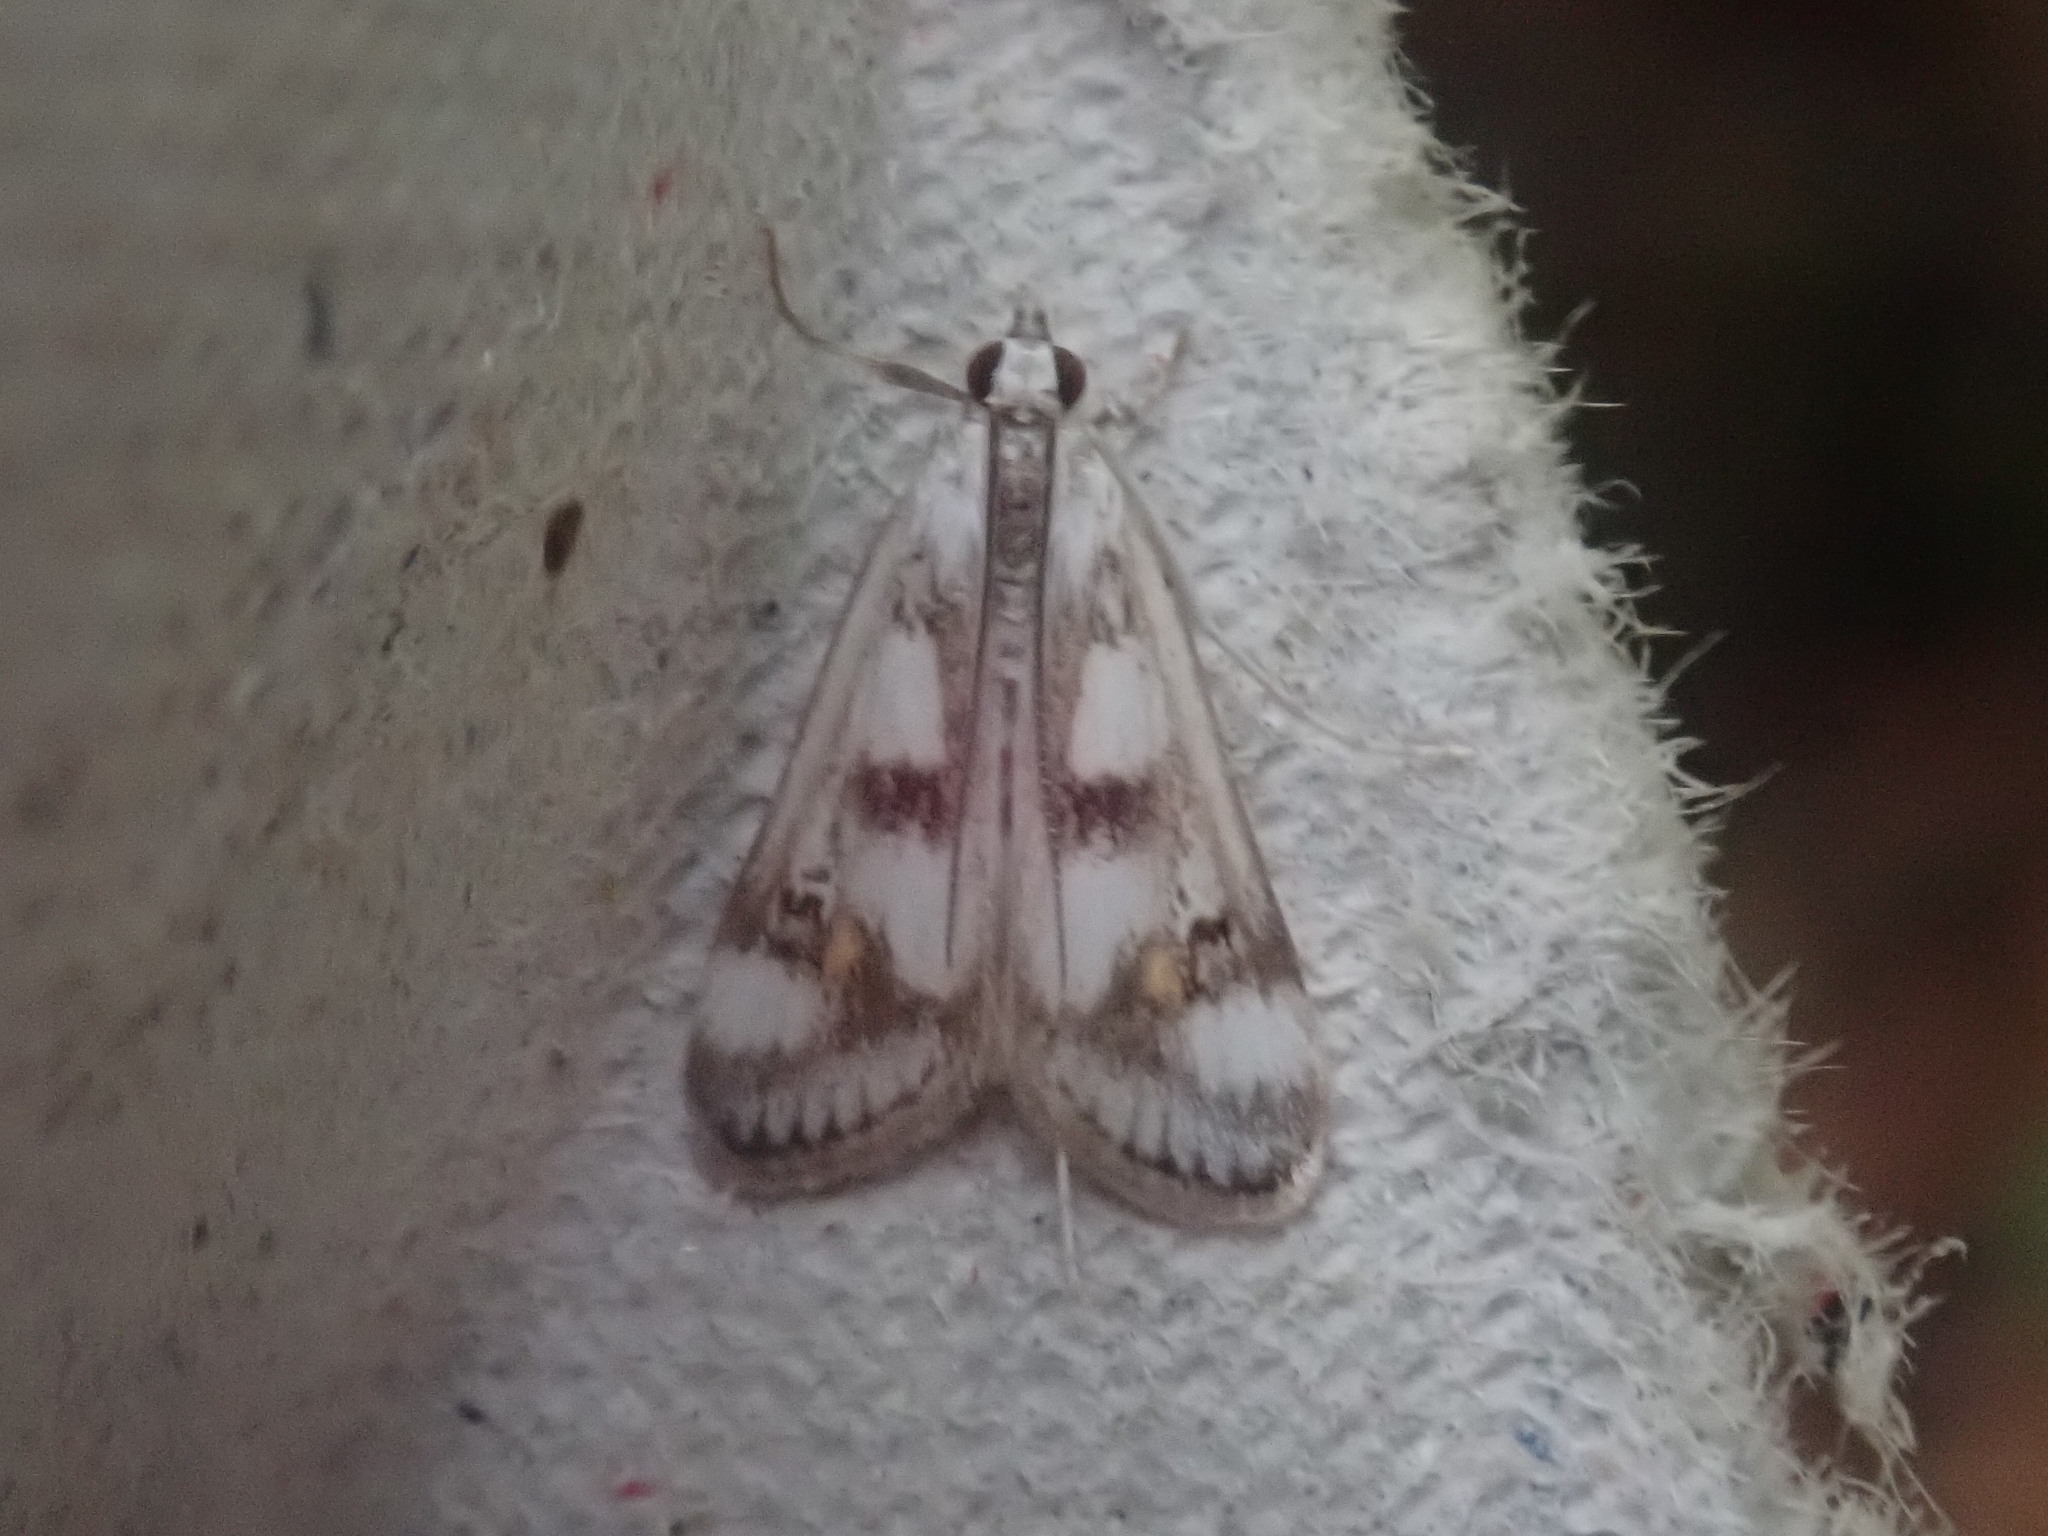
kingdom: Animalia
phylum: Arthropoda
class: Insecta
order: Lepidoptera
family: Crambidae
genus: Parapoynx
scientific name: Parapoynx maculalis
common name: Polymorphic pondweed moth
